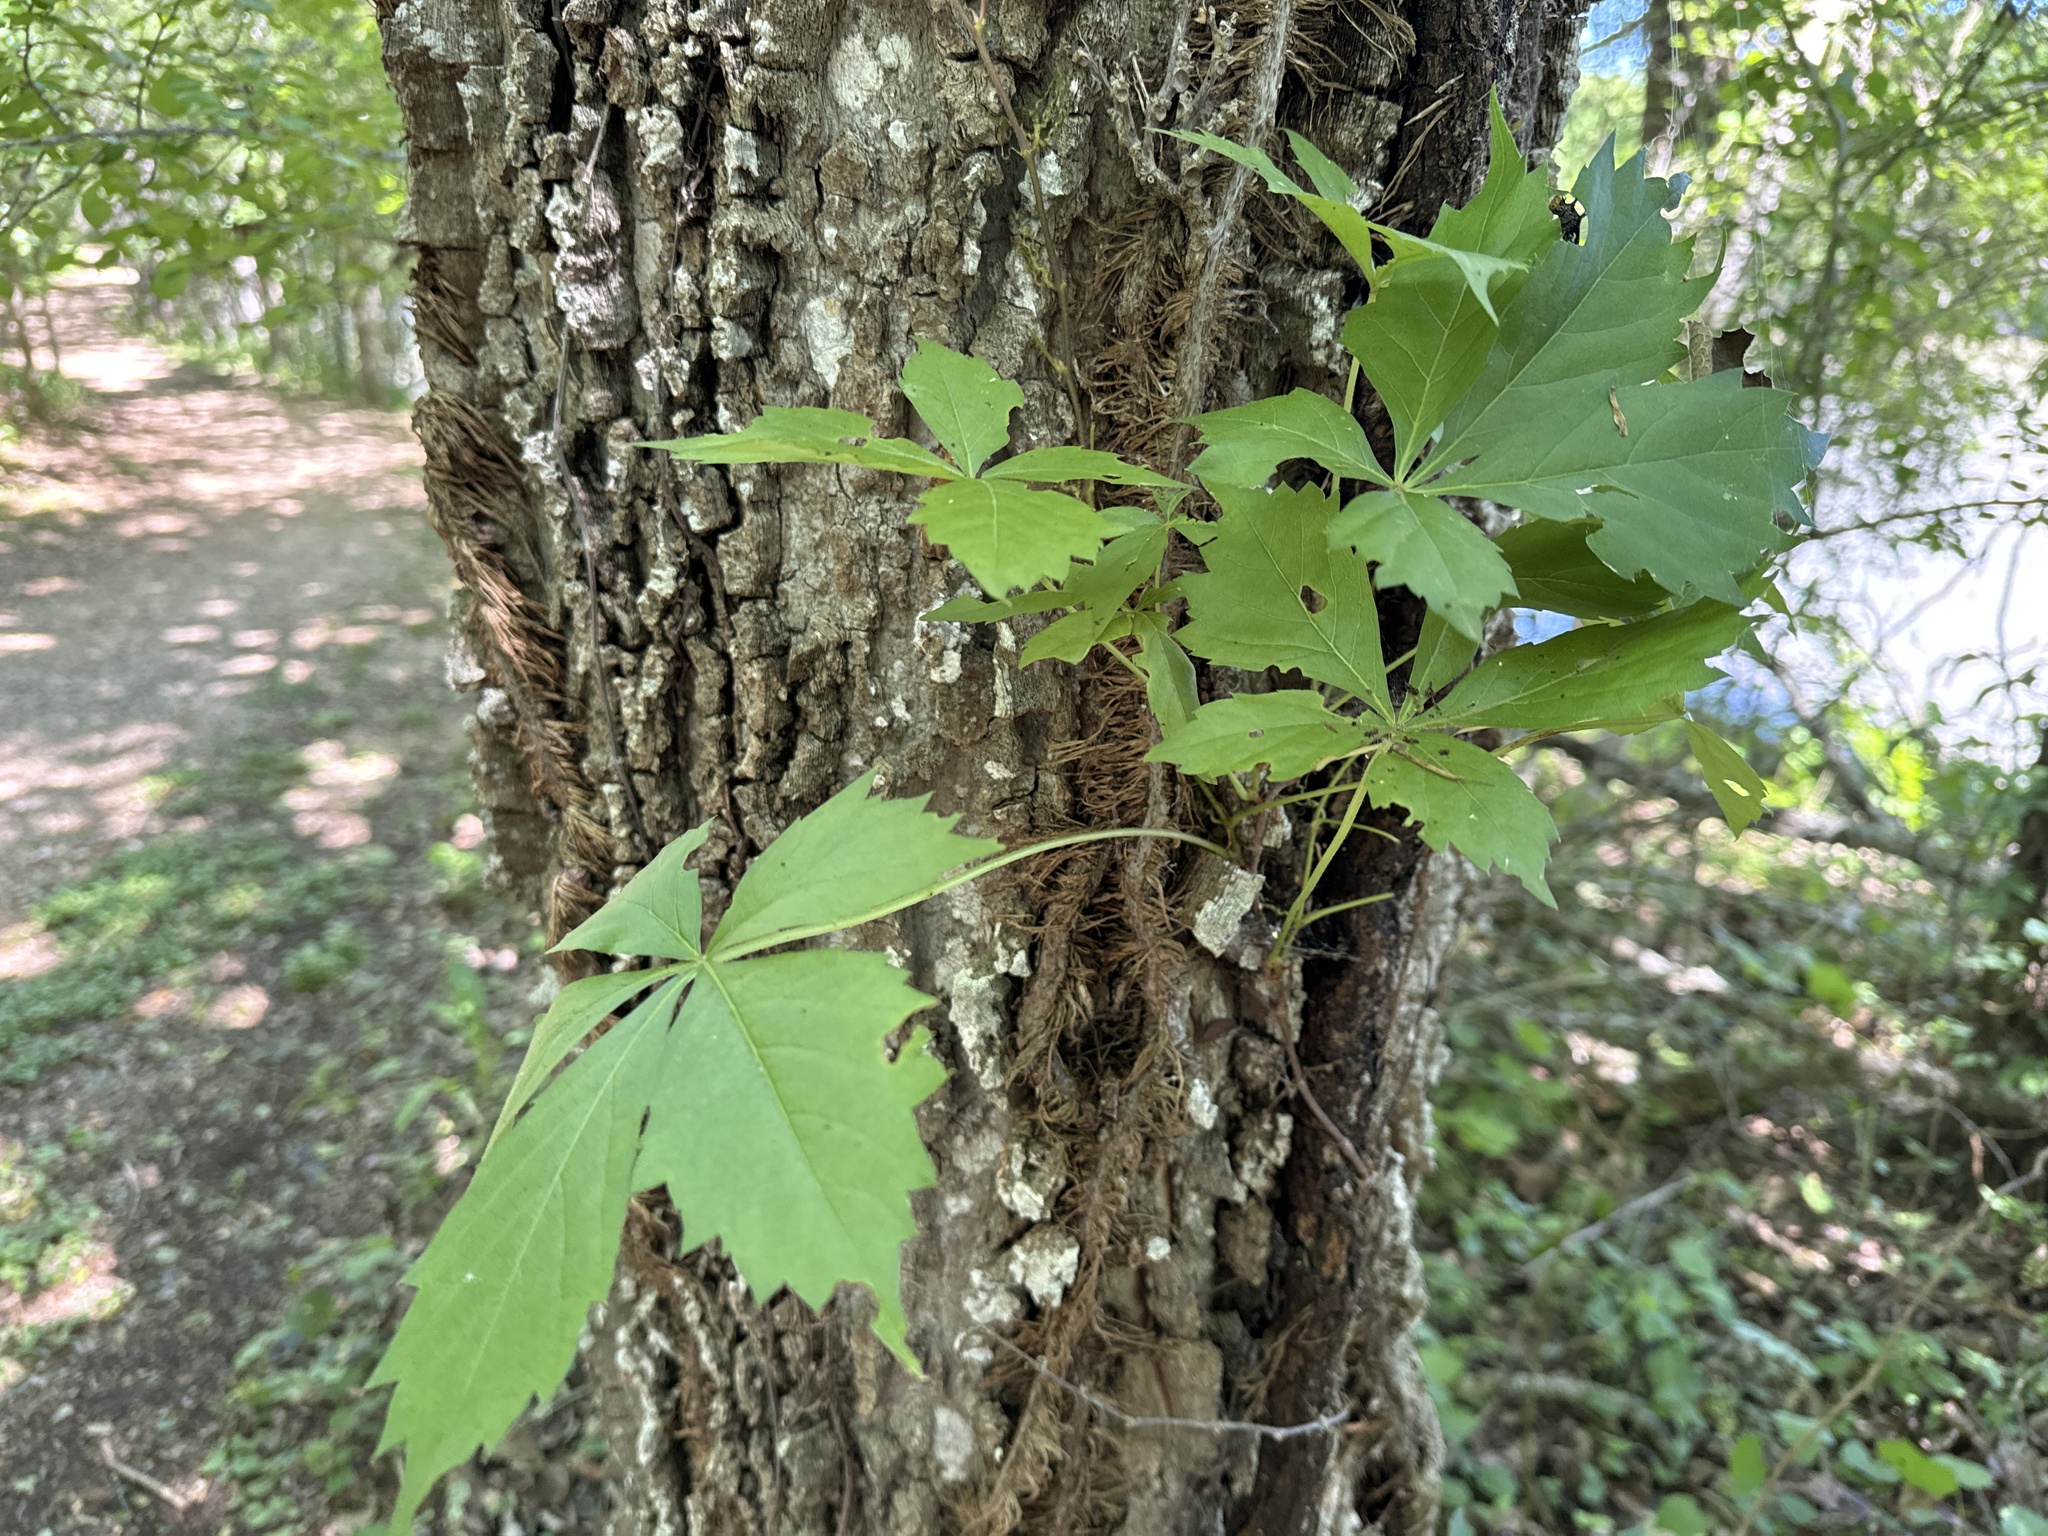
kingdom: Plantae
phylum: Tracheophyta
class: Magnoliopsida
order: Vitales
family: Vitaceae
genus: Parthenocissus
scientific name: Parthenocissus quinquefolia
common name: Virginia-creeper
